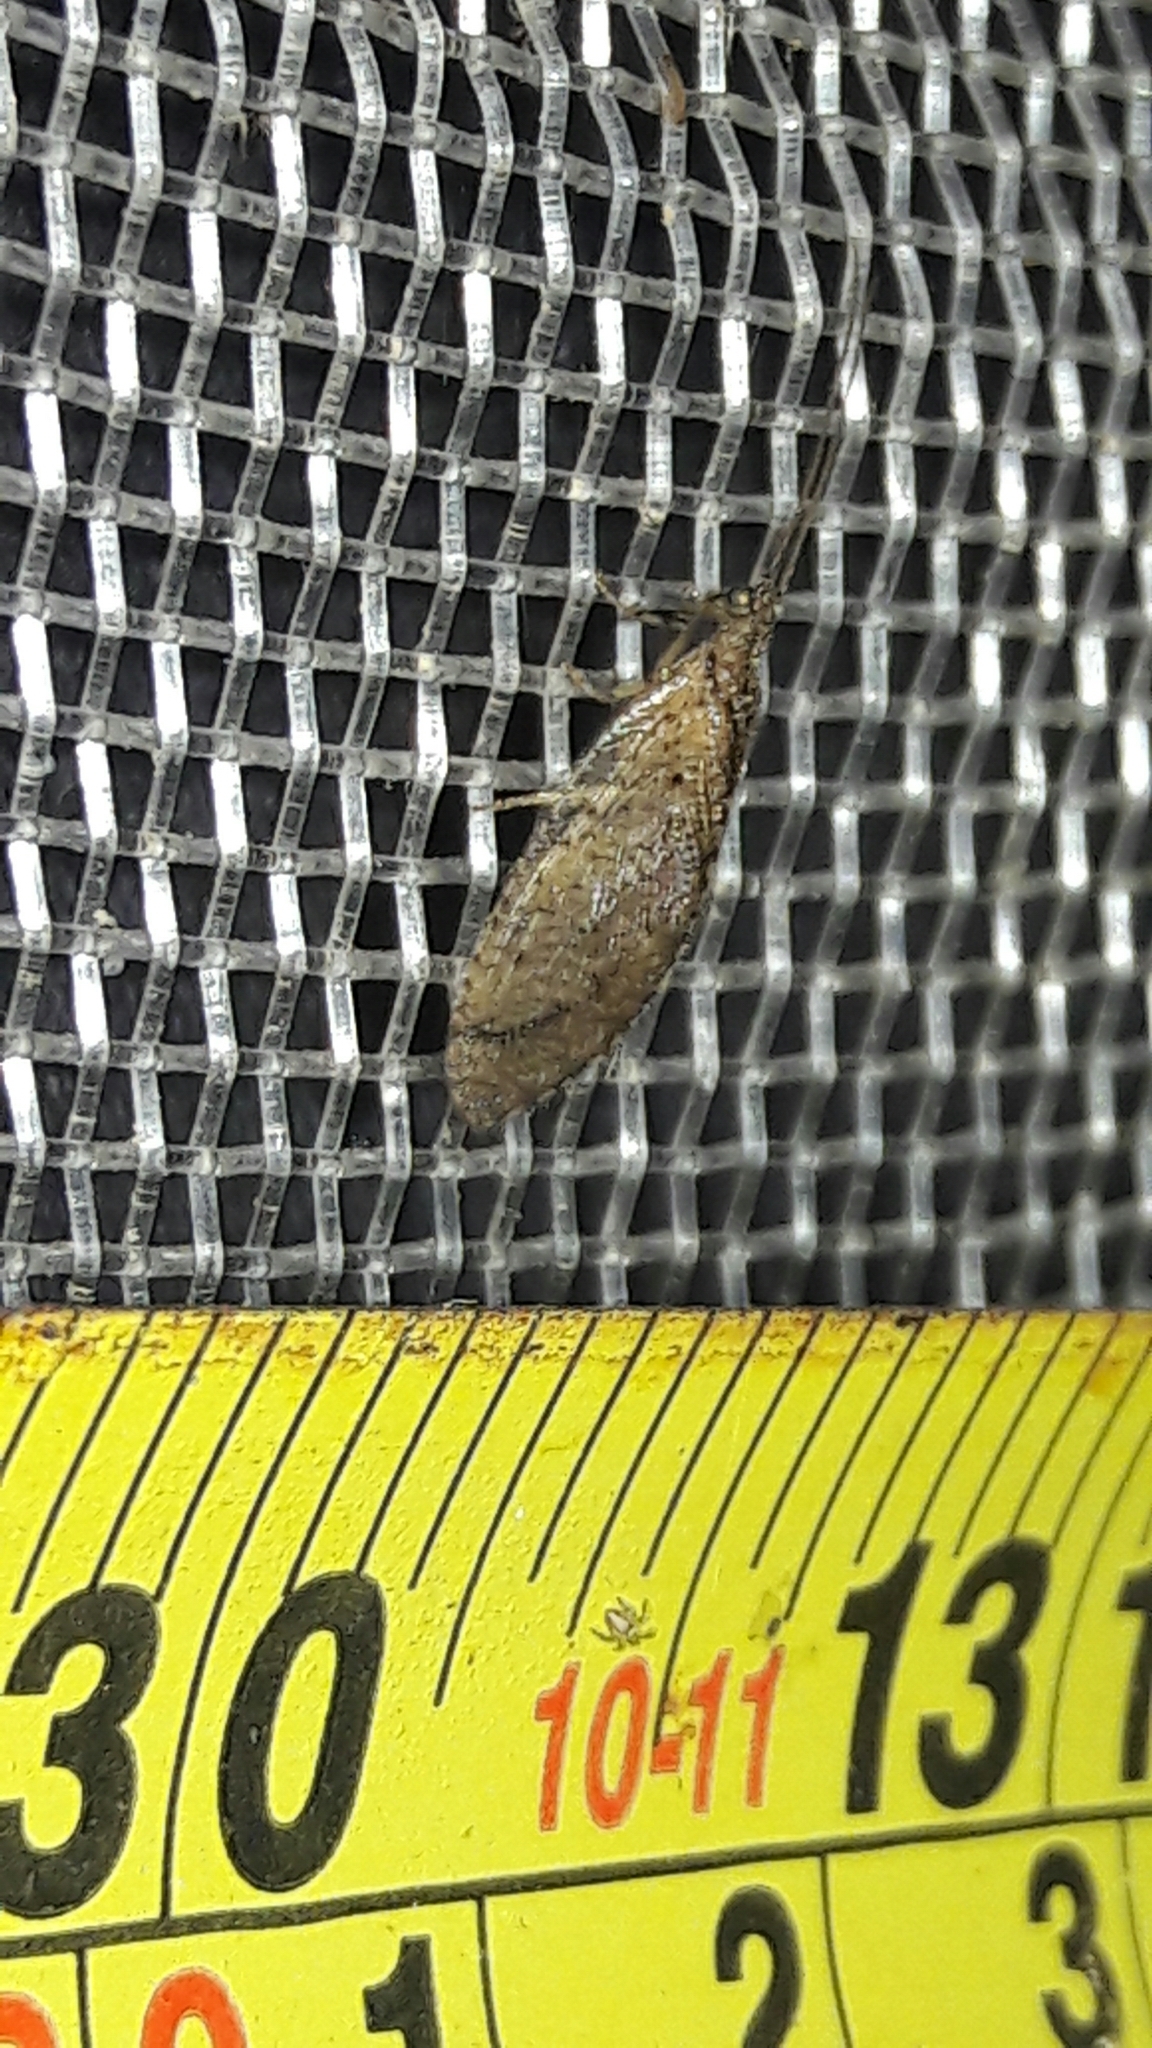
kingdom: Animalia
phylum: Arthropoda
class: Insecta
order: Neuroptera
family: Hemerobiidae
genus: Nusalala
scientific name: Nusalala tessellata
